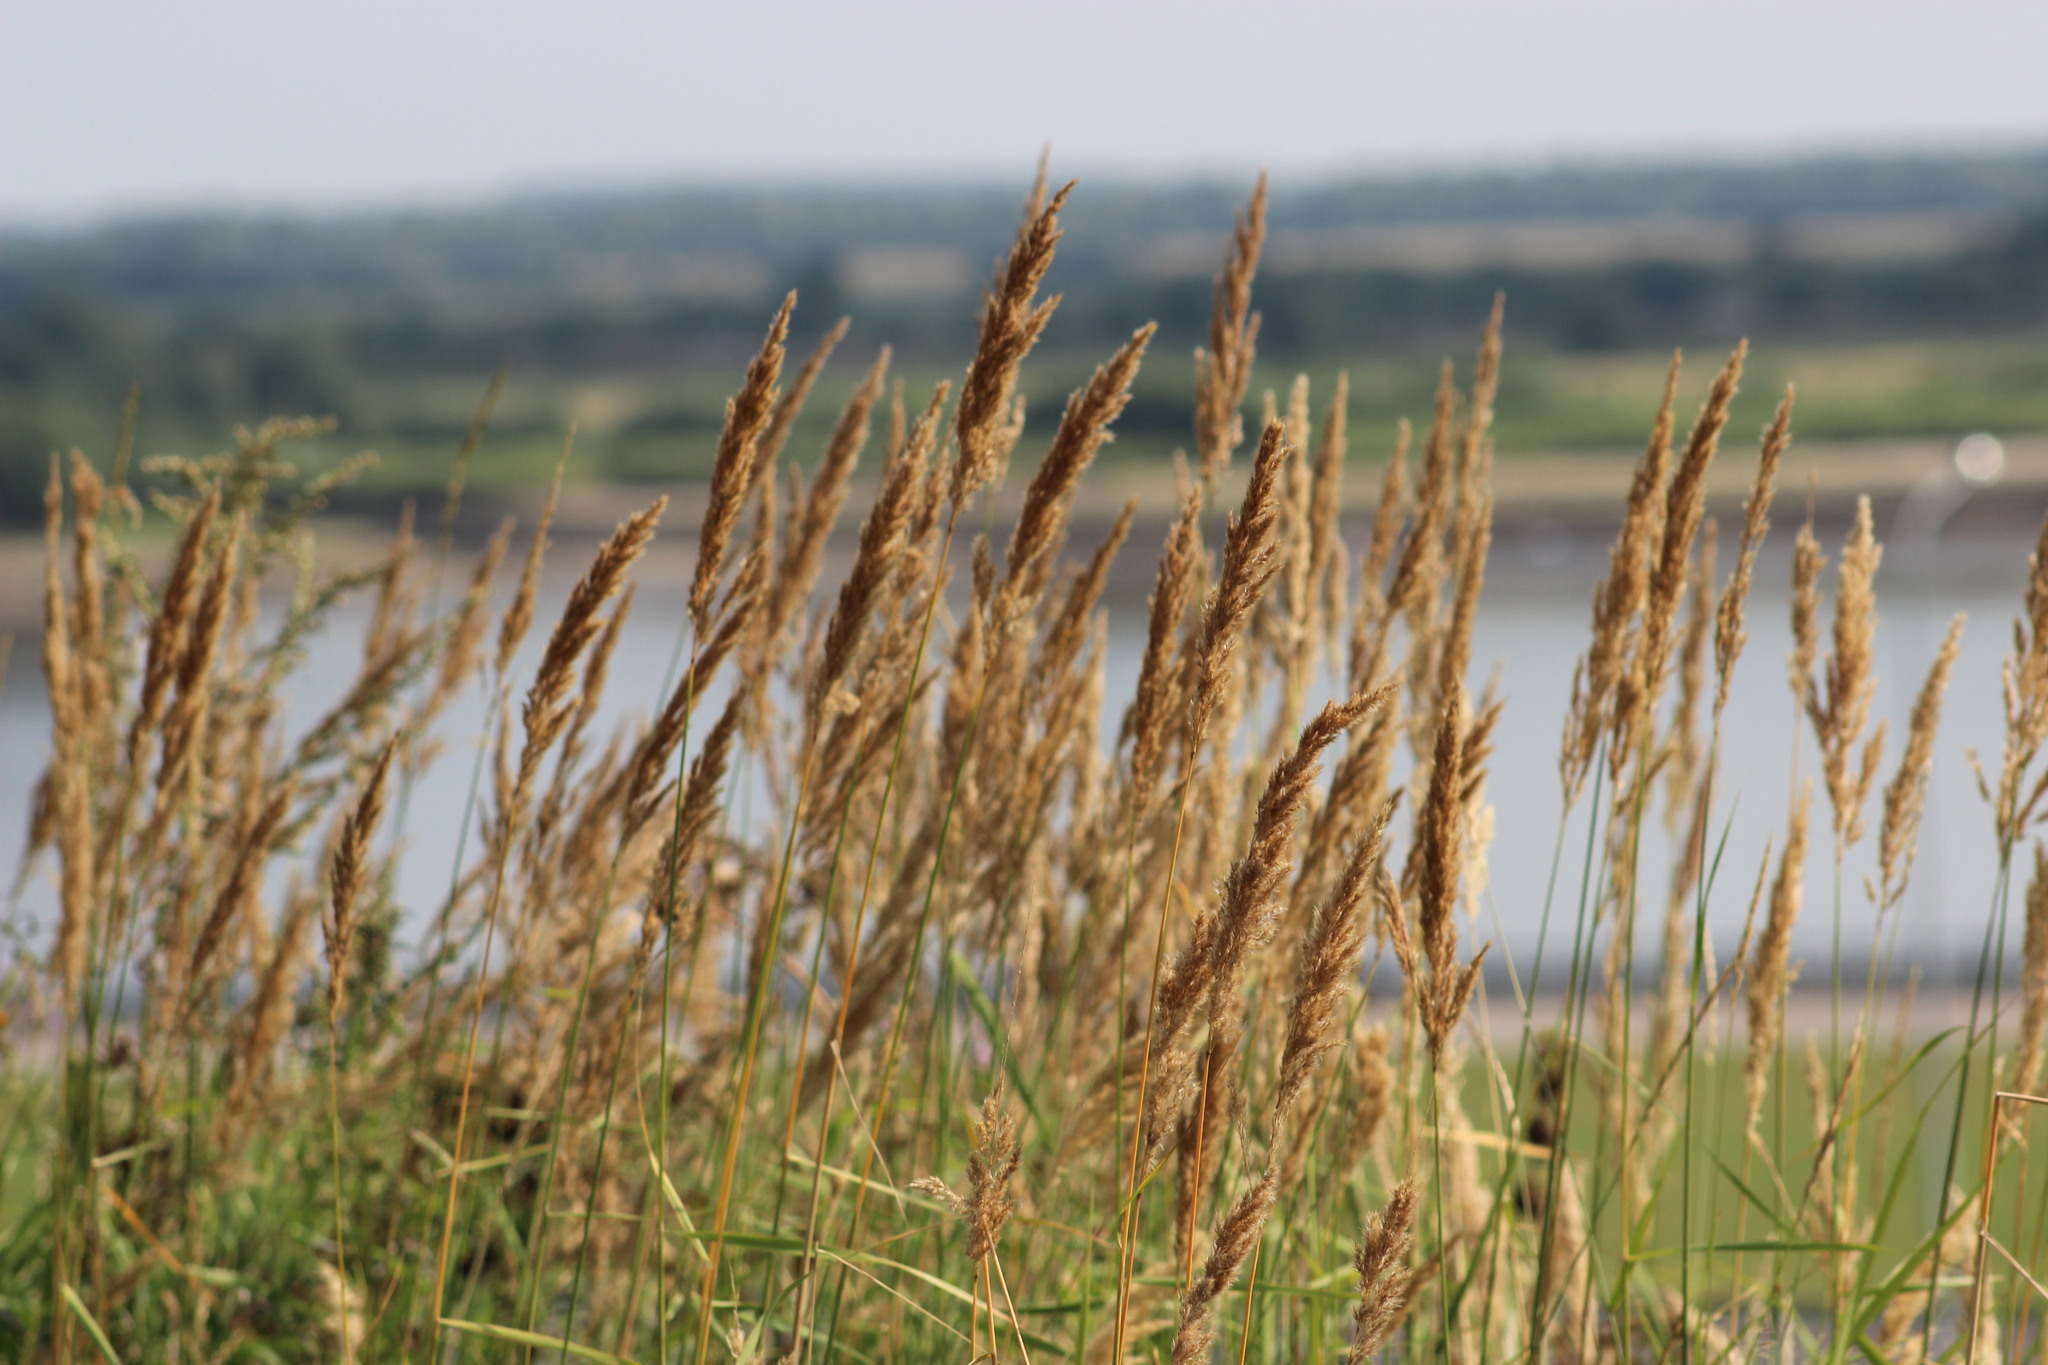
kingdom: Plantae
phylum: Tracheophyta
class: Liliopsida
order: Poales
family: Poaceae
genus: Calamagrostis
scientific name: Calamagrostis epigejos
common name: Wood small-reed
